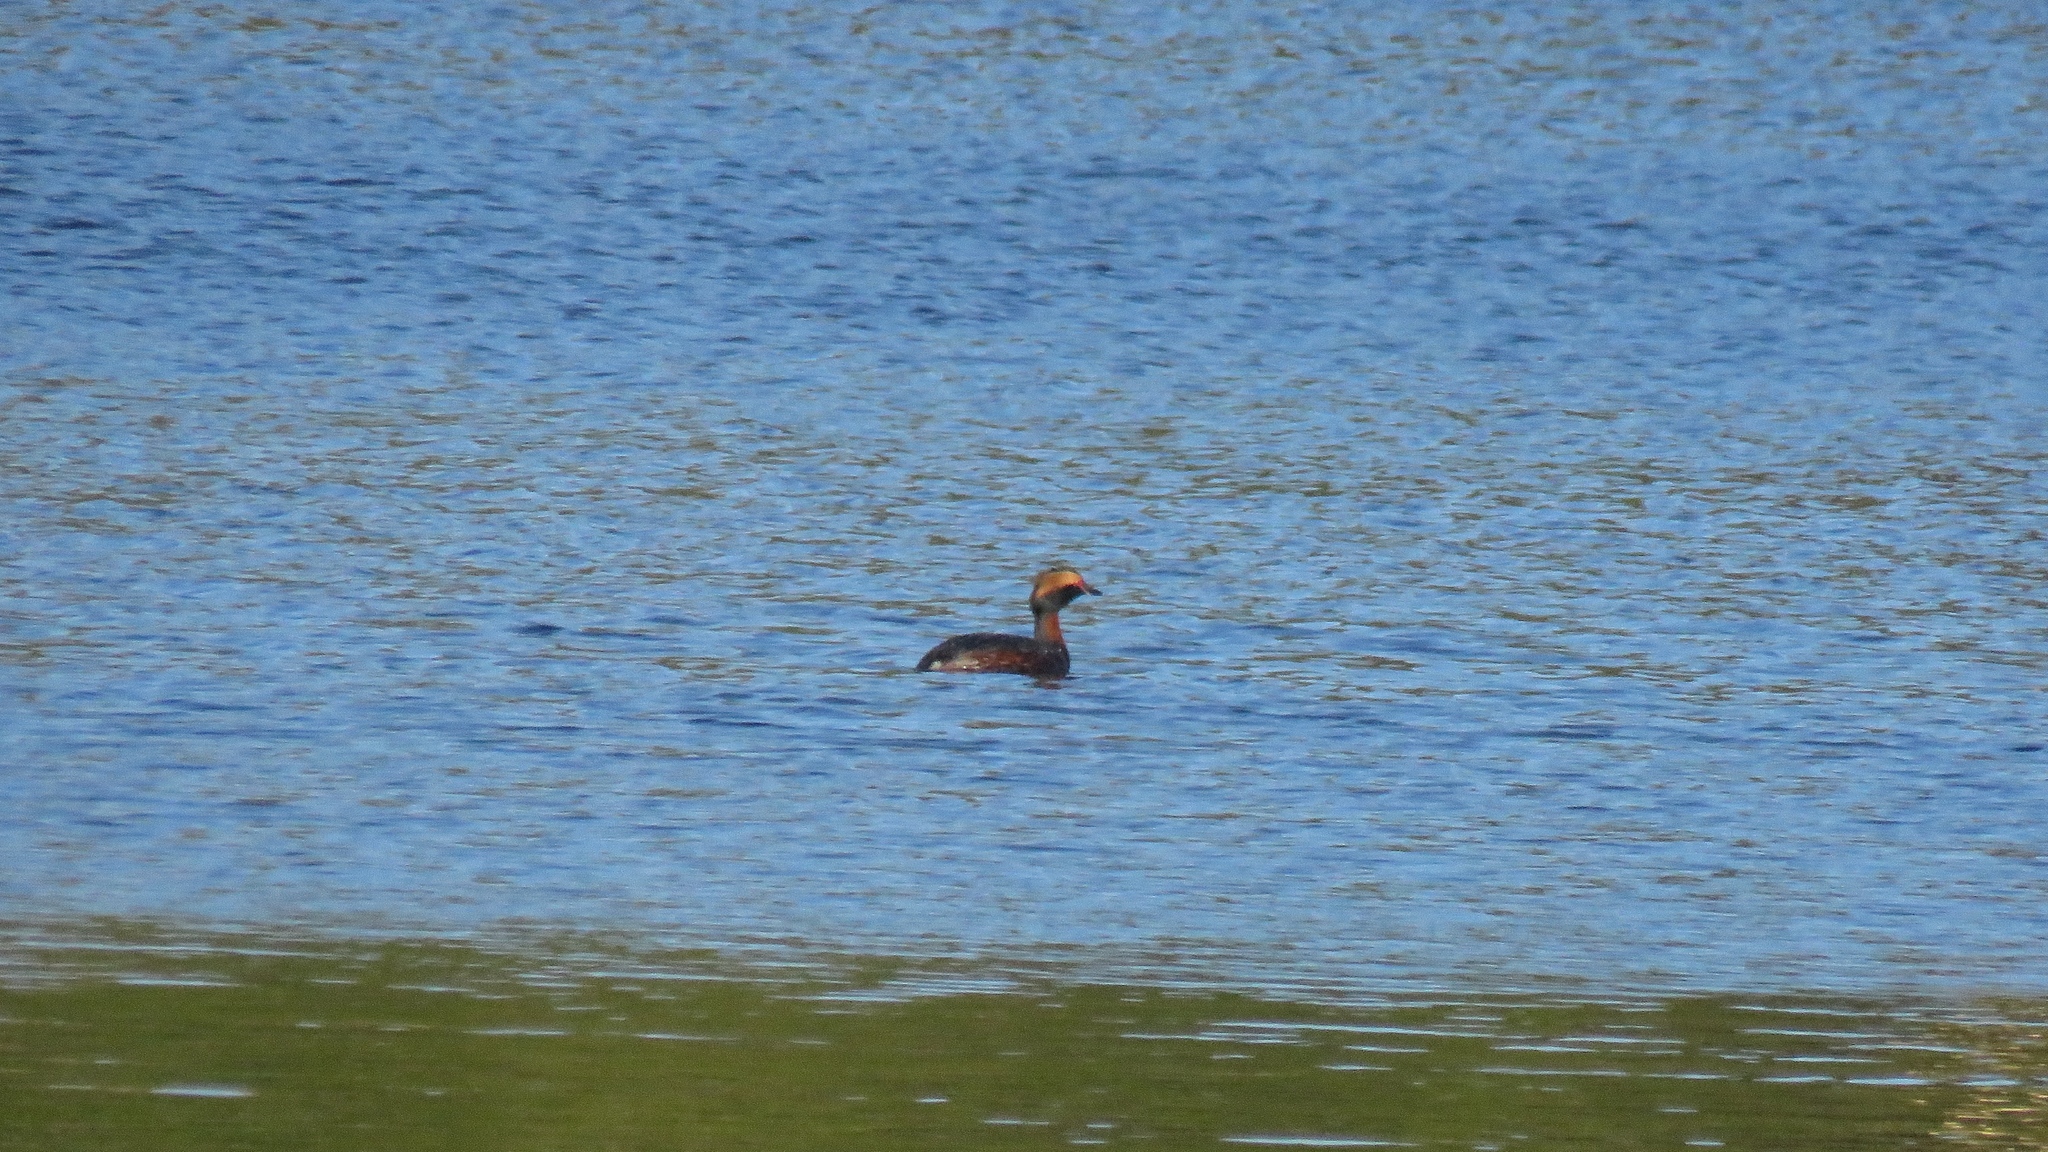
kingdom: Animalia
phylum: Chordata
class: Aves
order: Podicipediformes
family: Podicipedidae
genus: Podiceps
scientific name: Podiceps auritus
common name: Horned grebe
